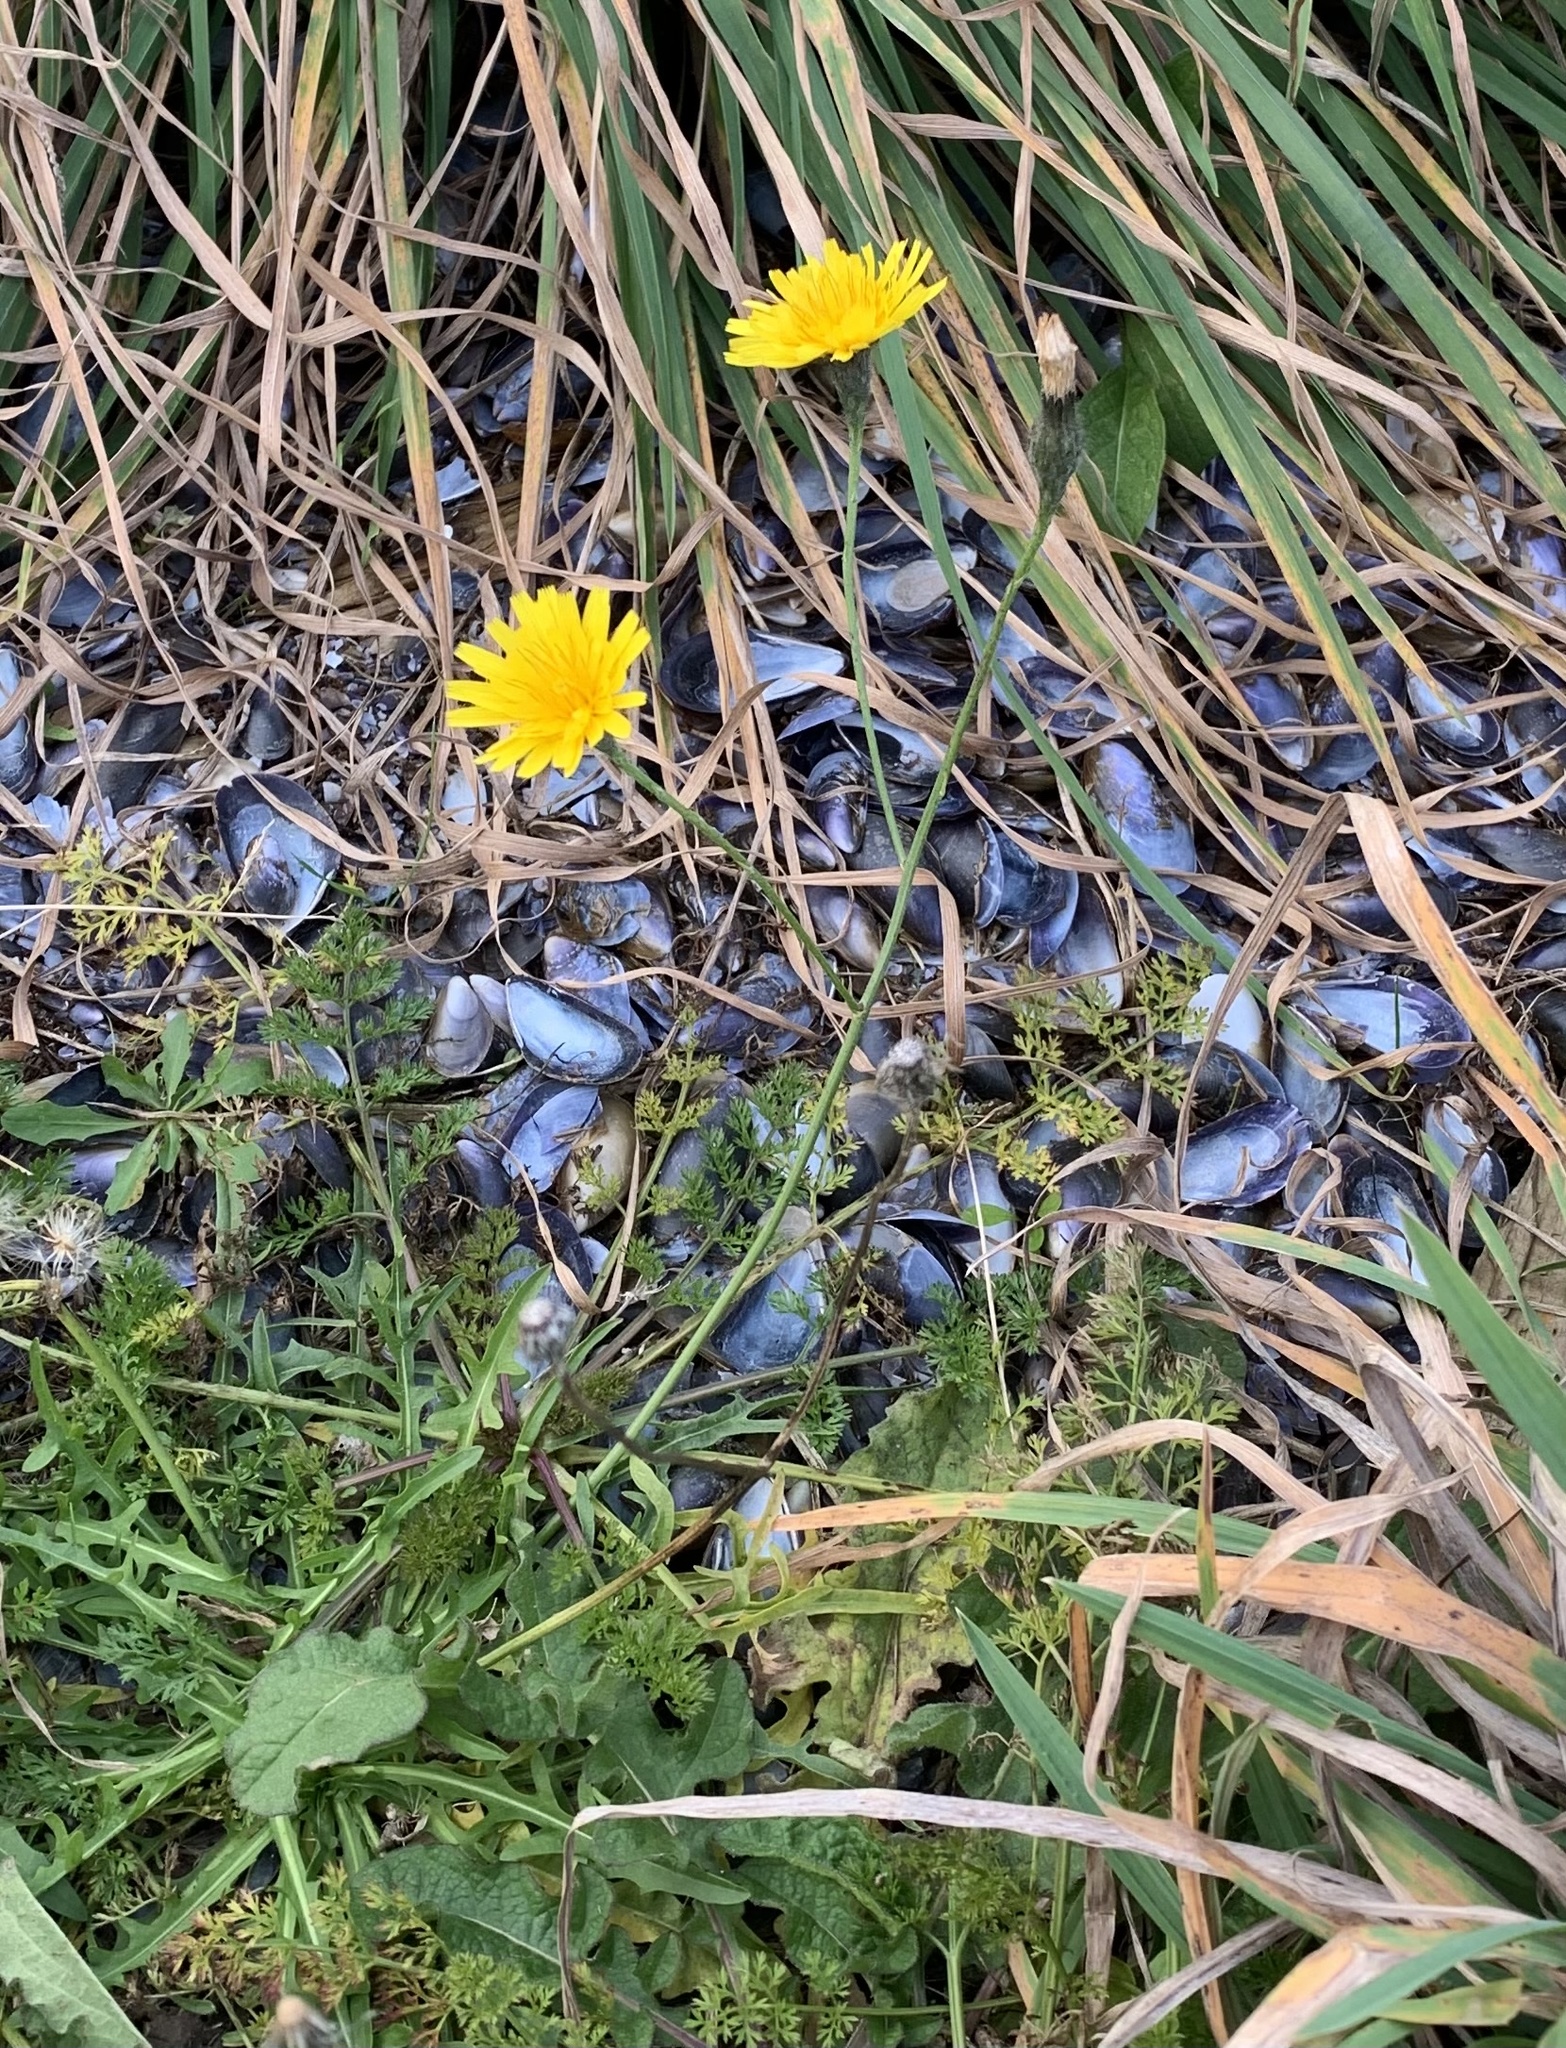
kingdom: Plantae
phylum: Tracheophyta
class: Magnoliopsida
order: Asterales
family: Asteraceae
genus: Scorzoneroides
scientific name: Scorzoneroides autumnalis
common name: Autumn hawkbit
